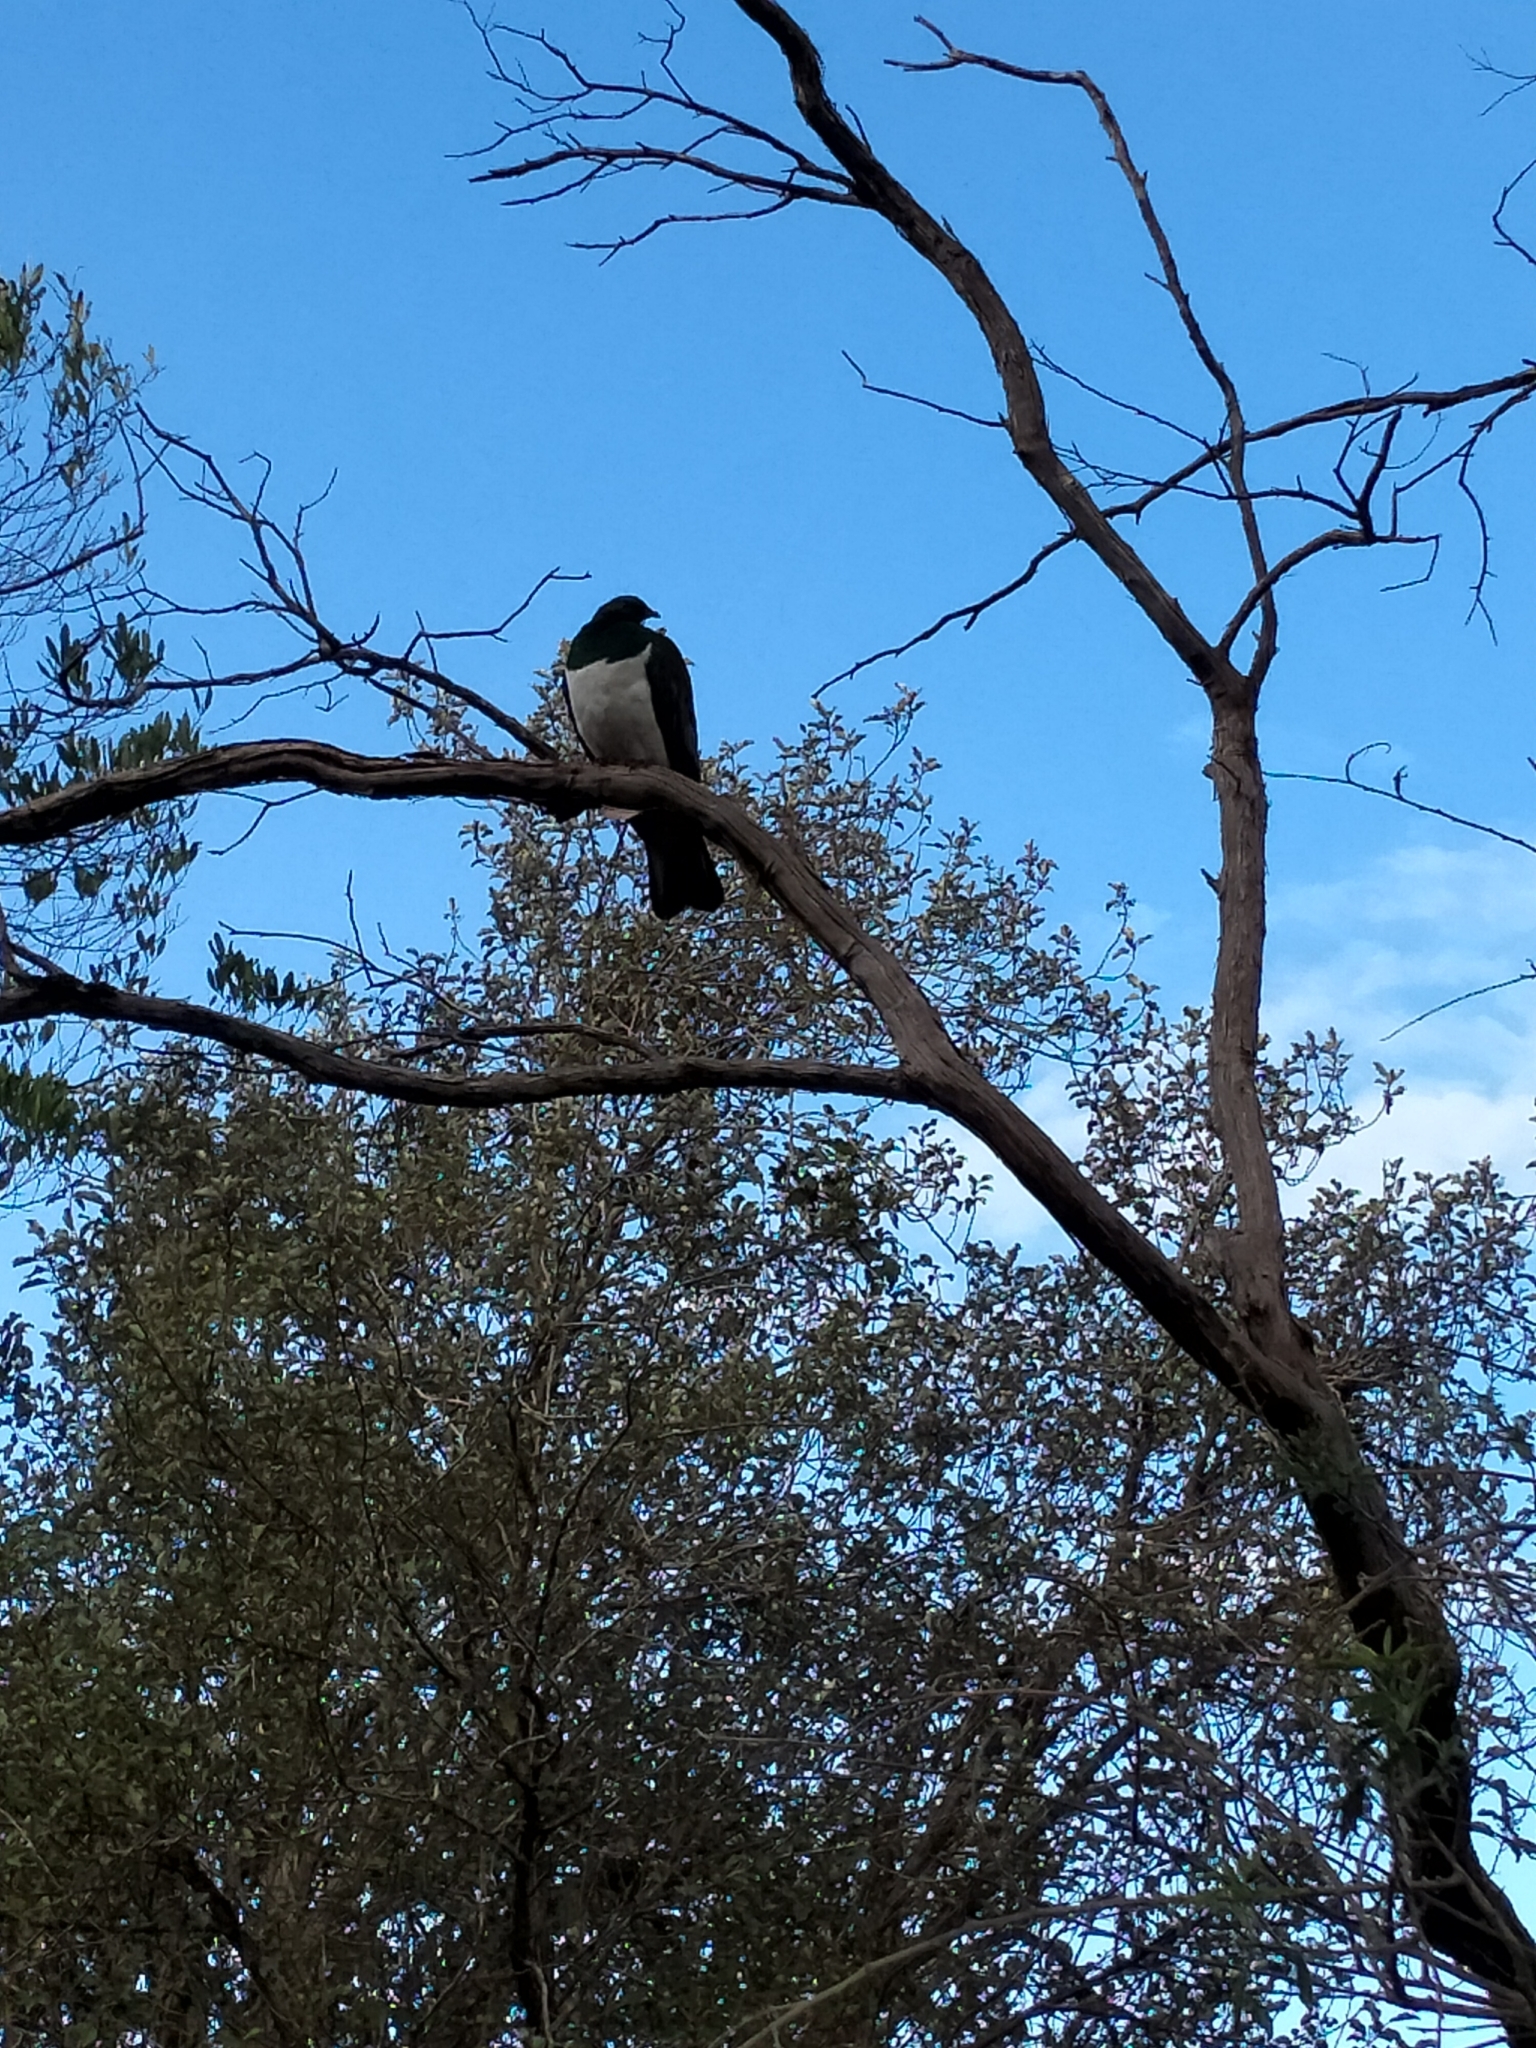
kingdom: Animalia
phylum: Chordata
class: Aves
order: Columbiformes
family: Columbidae
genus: Hemiphaga
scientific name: Hemiphaga novaeseelandiae
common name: New zealand pigeon
